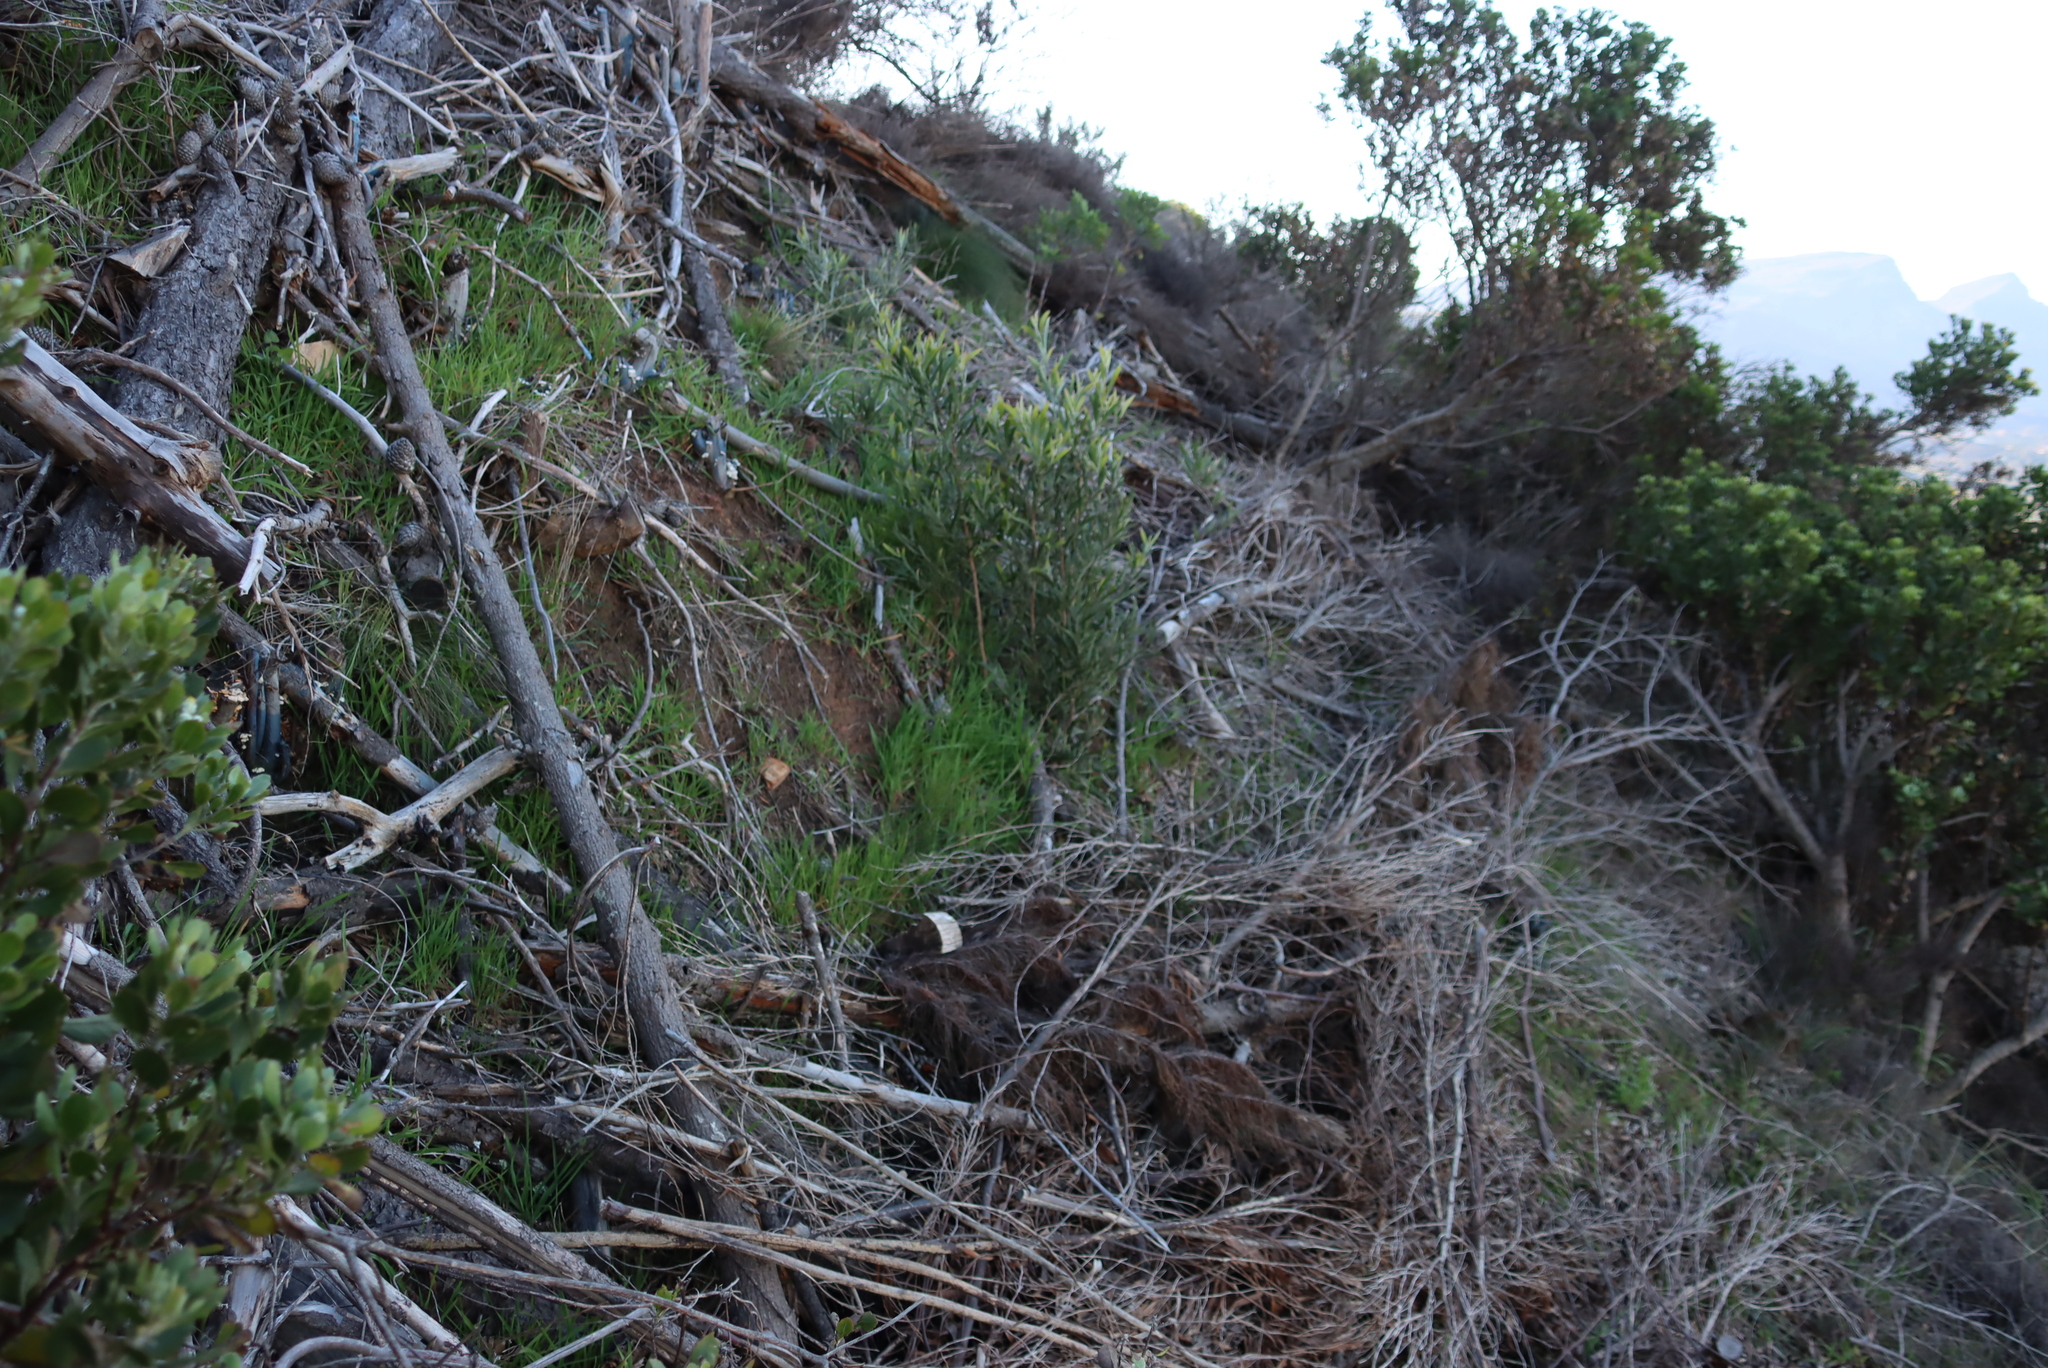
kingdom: Plantae
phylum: Tracheophyta
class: Magnoliopsida
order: Fabales
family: Fabaceae
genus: Acacia
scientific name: Acacia melanoxylon
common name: Blackwood
